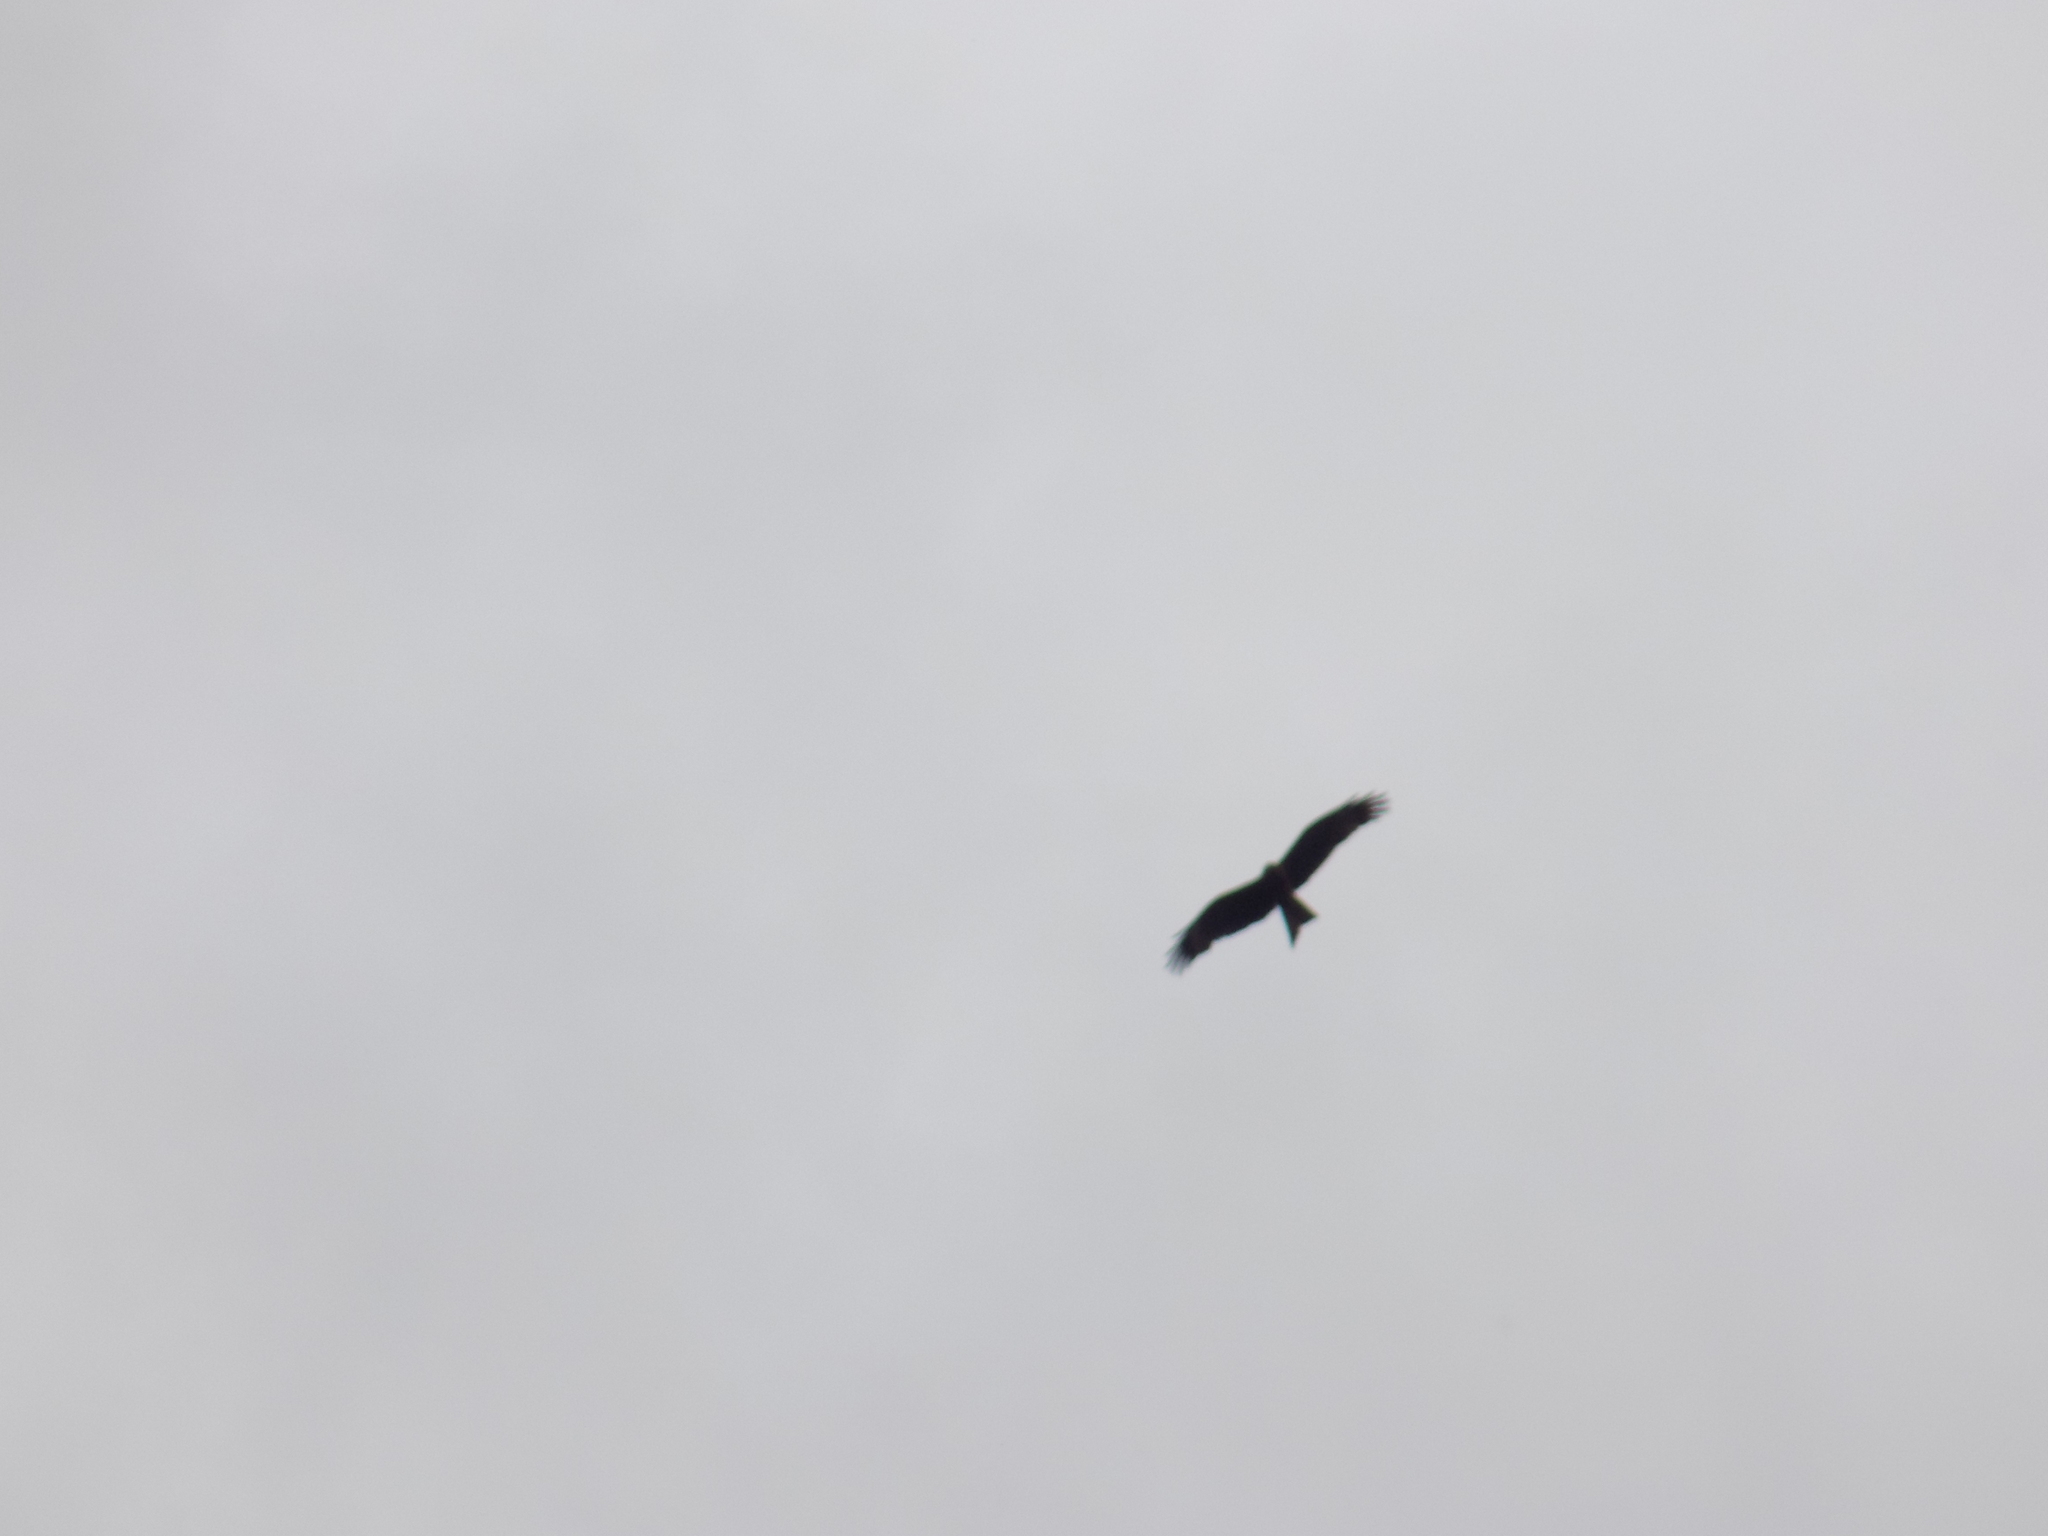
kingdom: Animalia
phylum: Chordata
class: Aves
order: Accipitriformes
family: Accipitridae
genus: Milvus
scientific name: Milvus migrans
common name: Black kite
